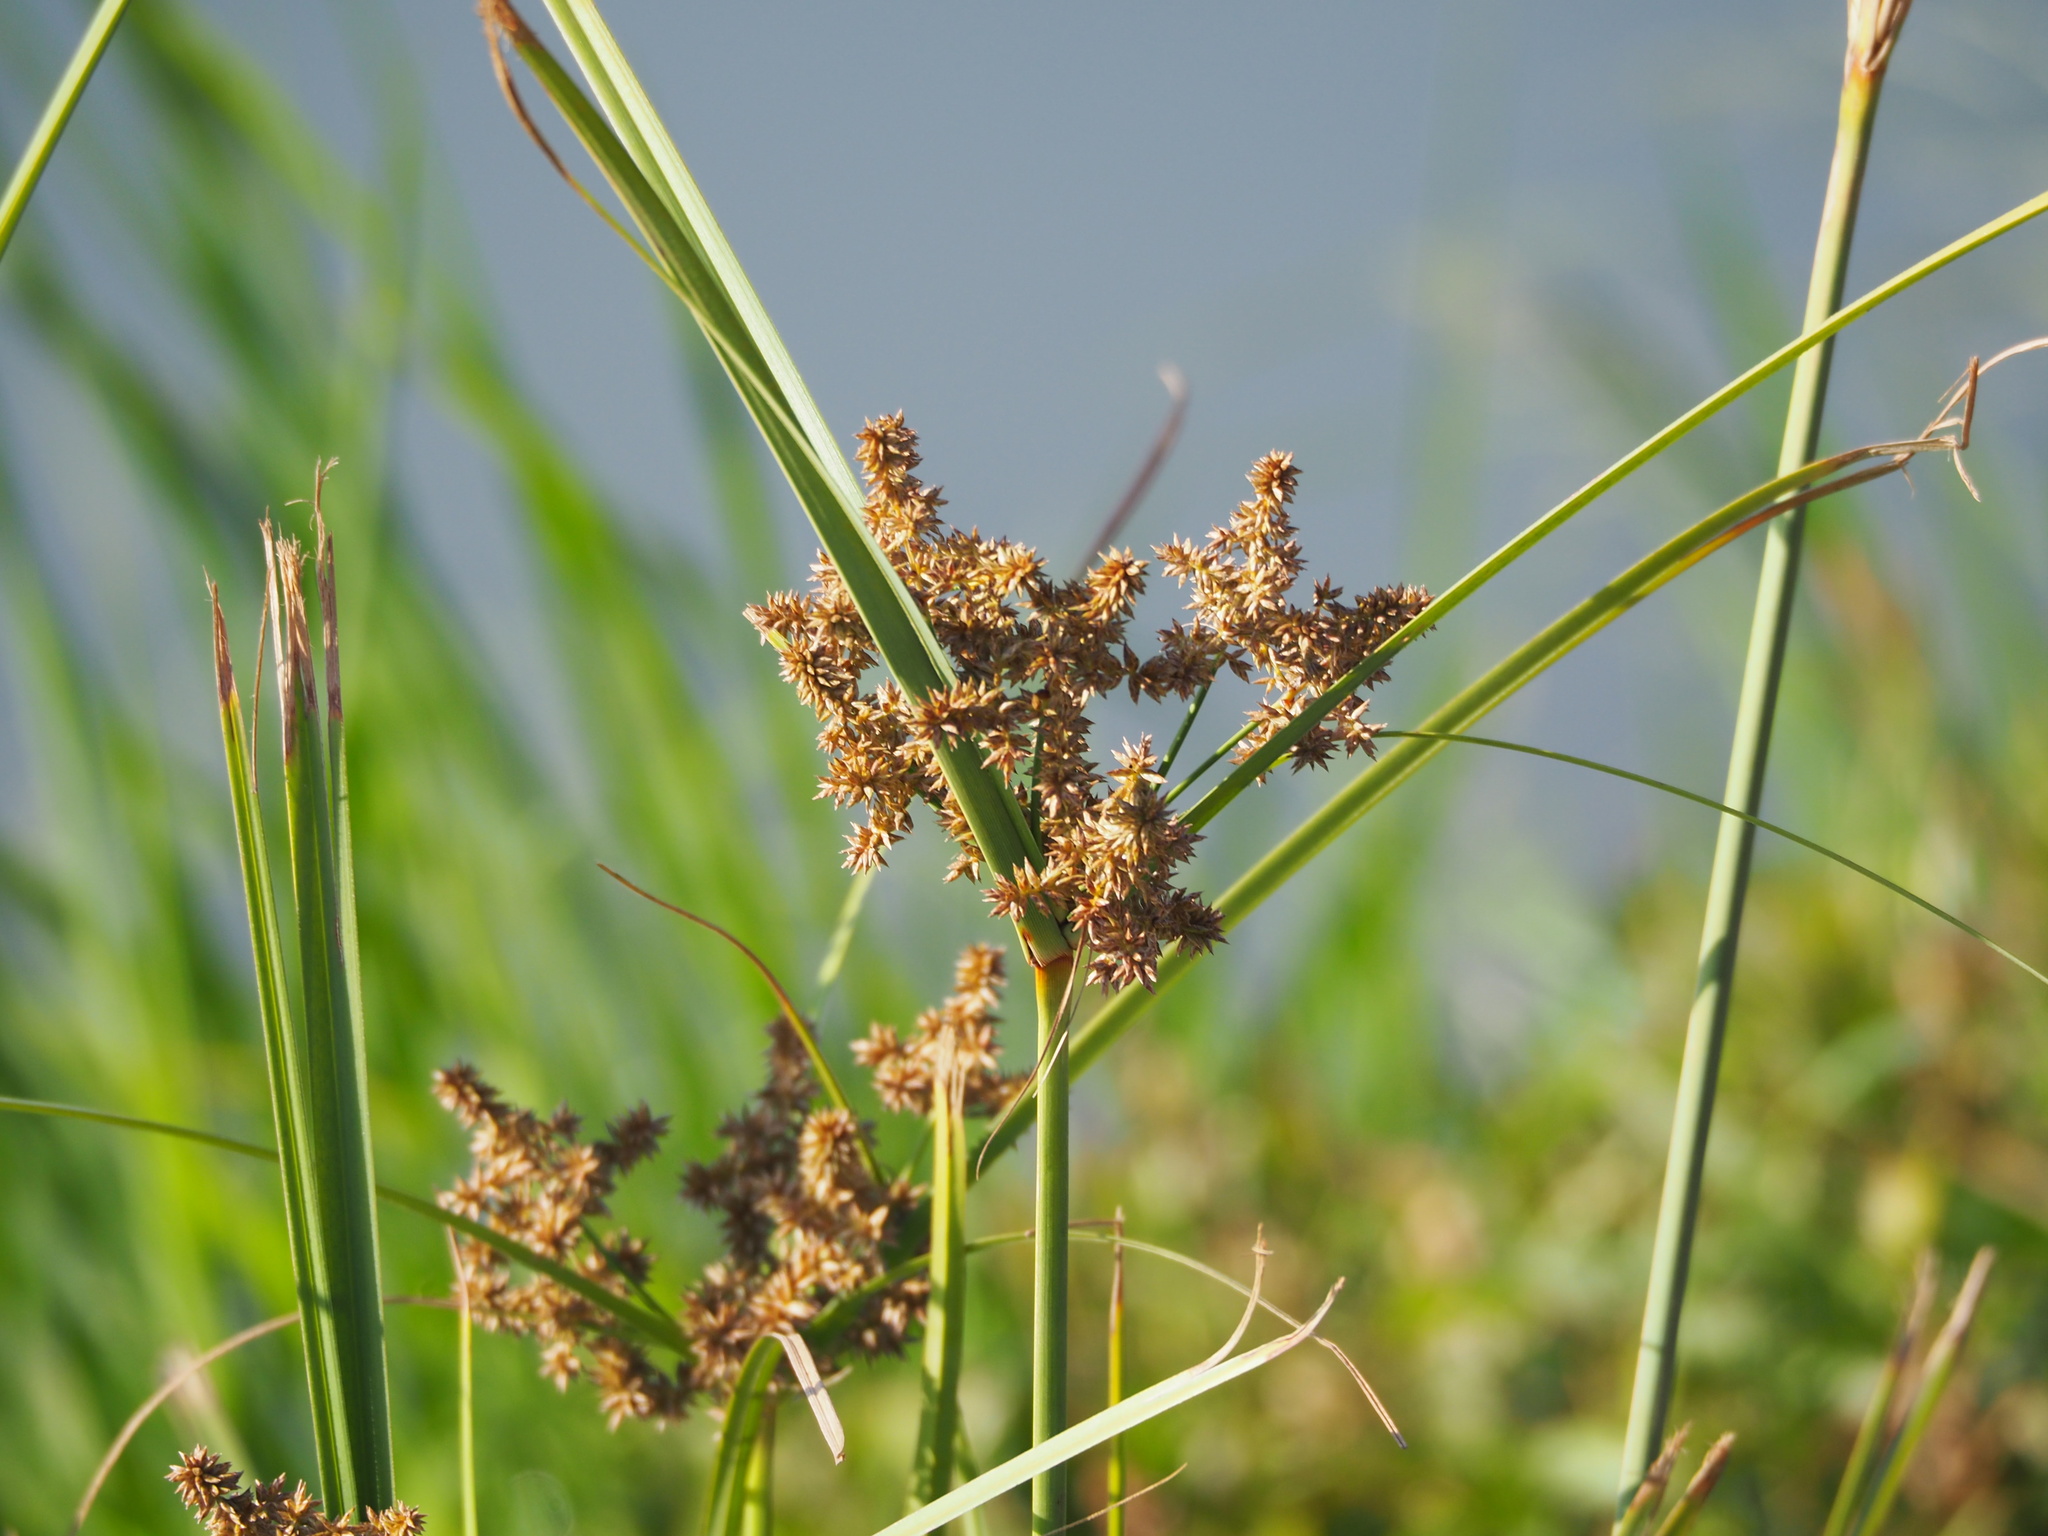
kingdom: Plantae
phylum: Tracheophyta
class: Liliopsida
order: Poales
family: Cyperaceae
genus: Cyperus
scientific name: Cyperus javanicus
